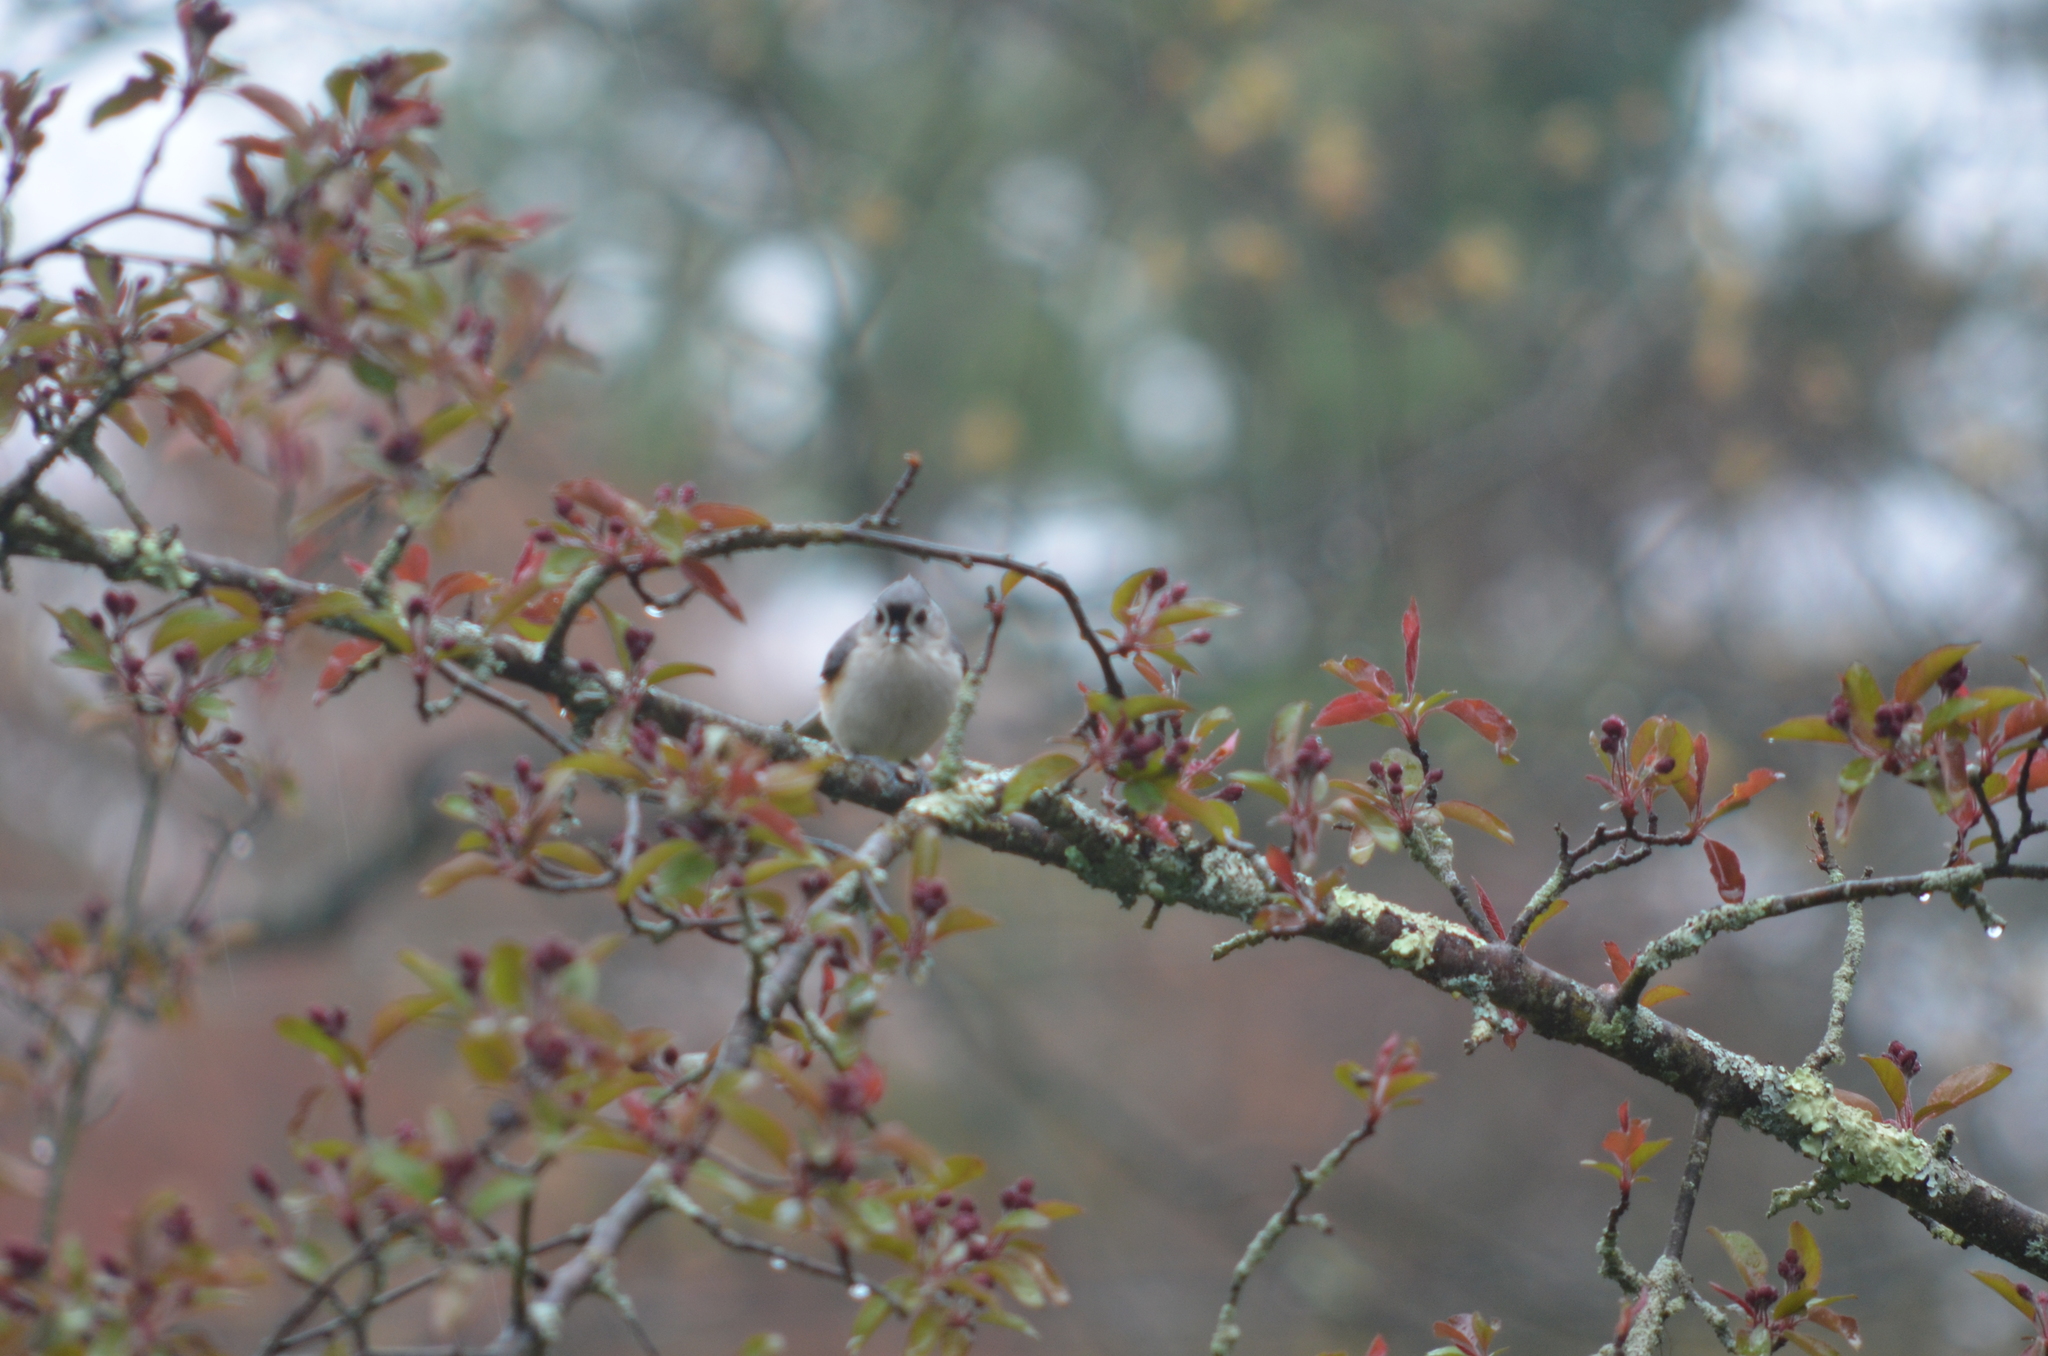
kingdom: Animalia
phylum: Chordata
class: Aves
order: Passeriformes
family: Paridae
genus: Baeolophus
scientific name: Baeolophus bicolor
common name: Tufted titmouse
